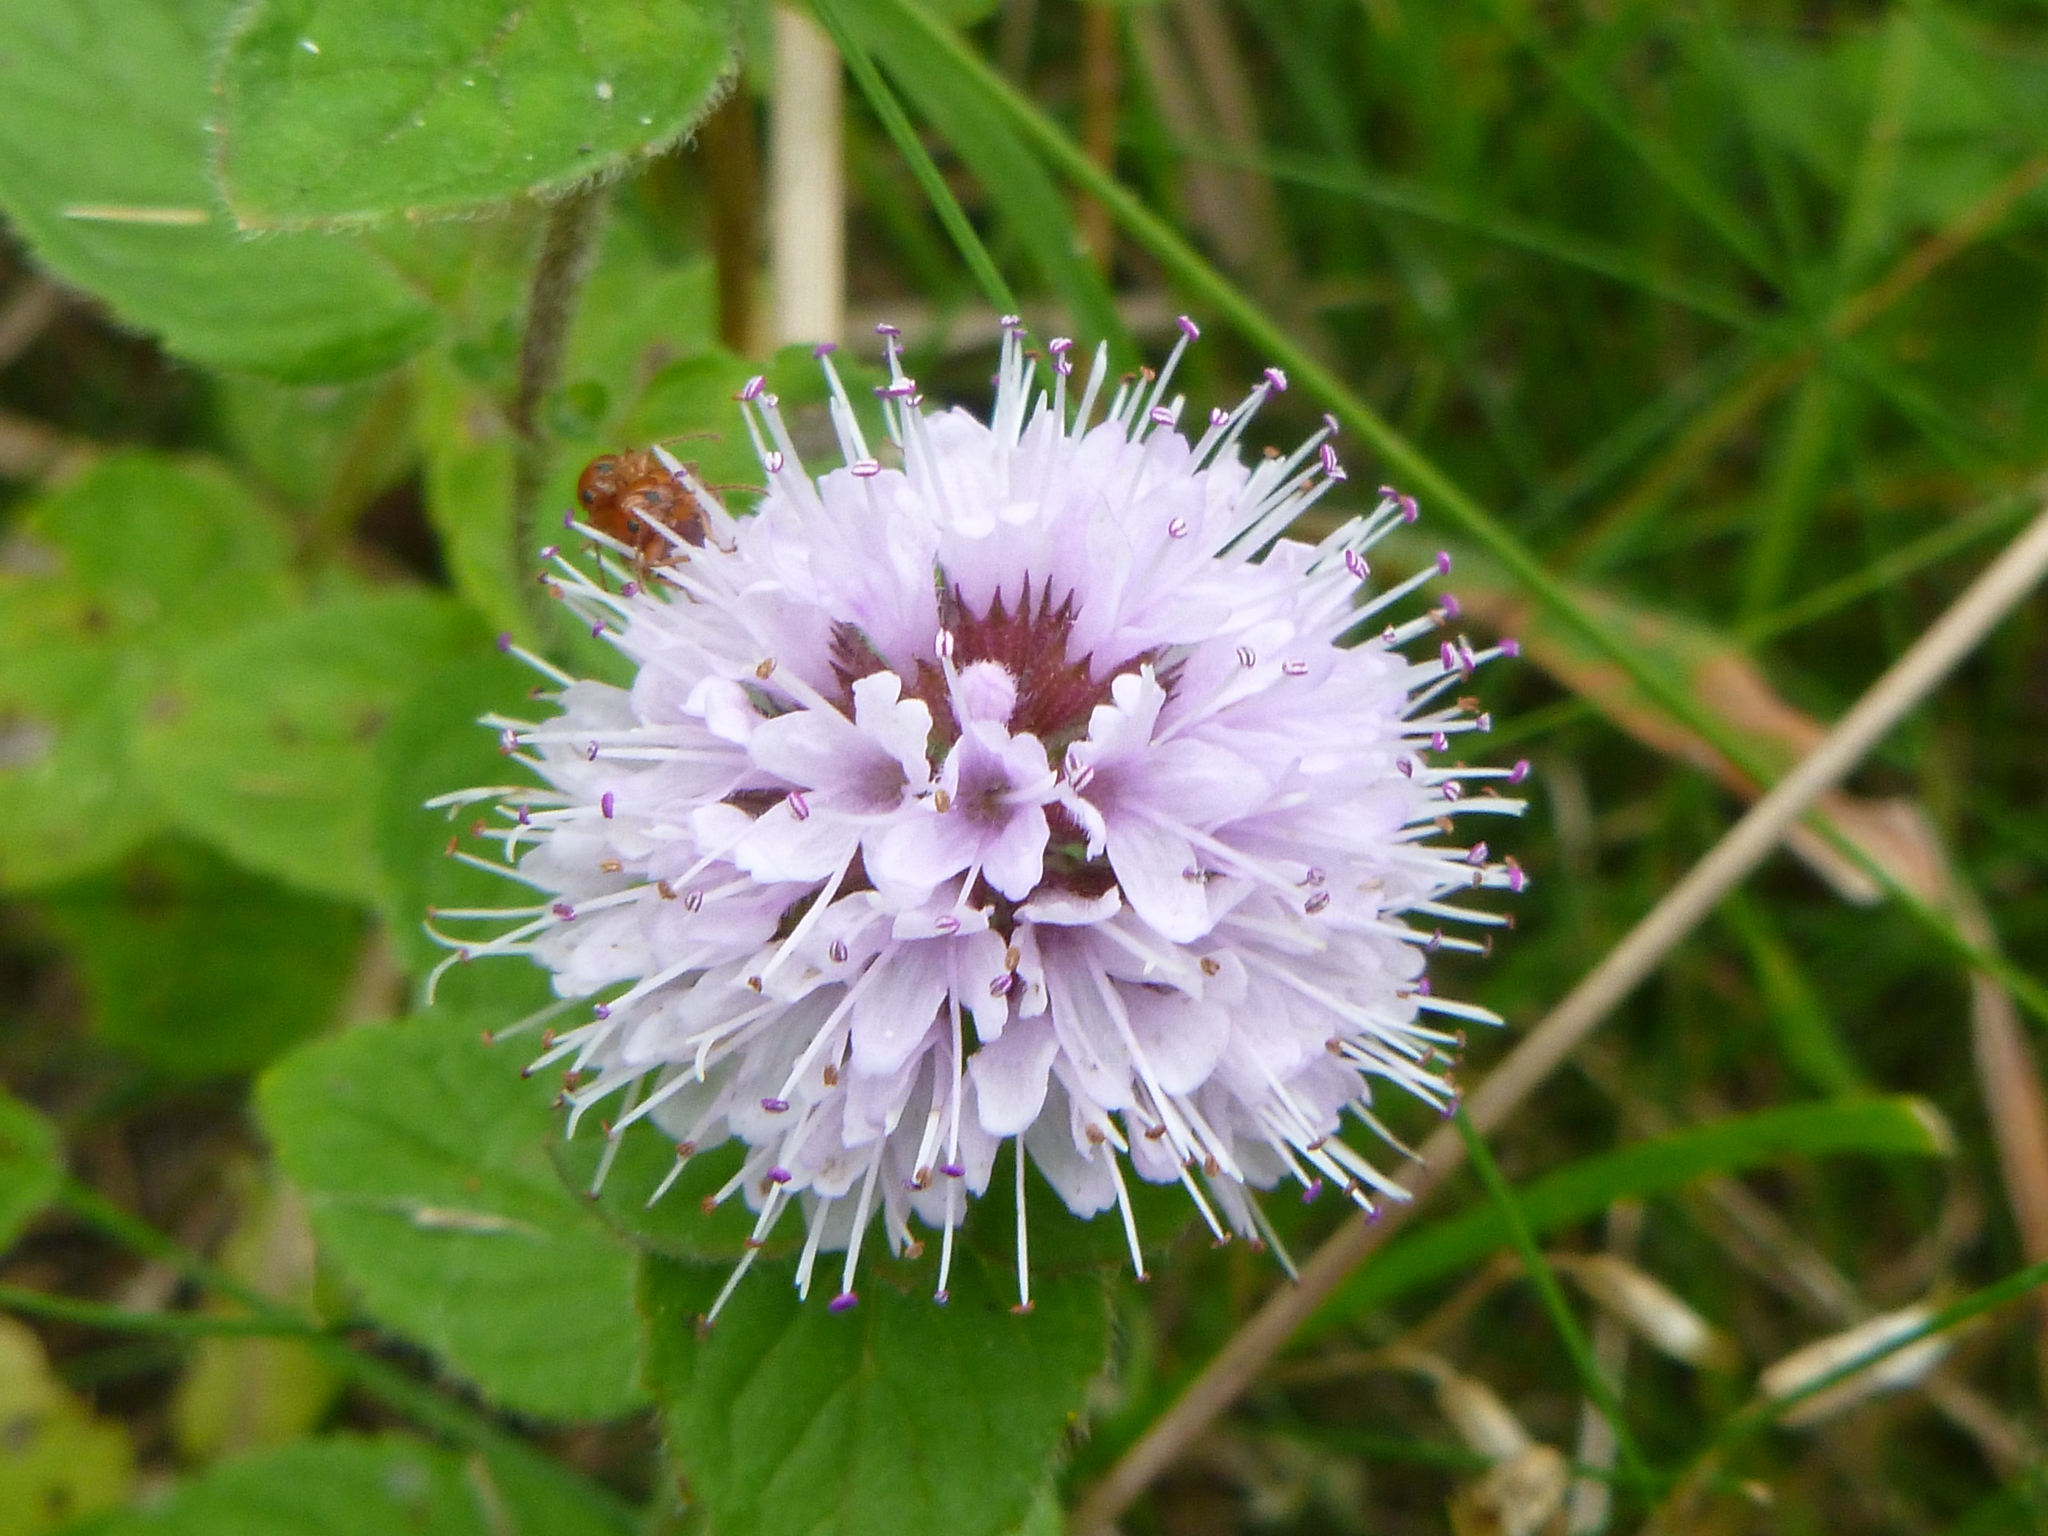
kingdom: Plantae
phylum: Tracheophyta
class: Magnoliopsida
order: Lamiales
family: Lamiaceae
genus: Mentha
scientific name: Mentha aquatica
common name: Water mint
